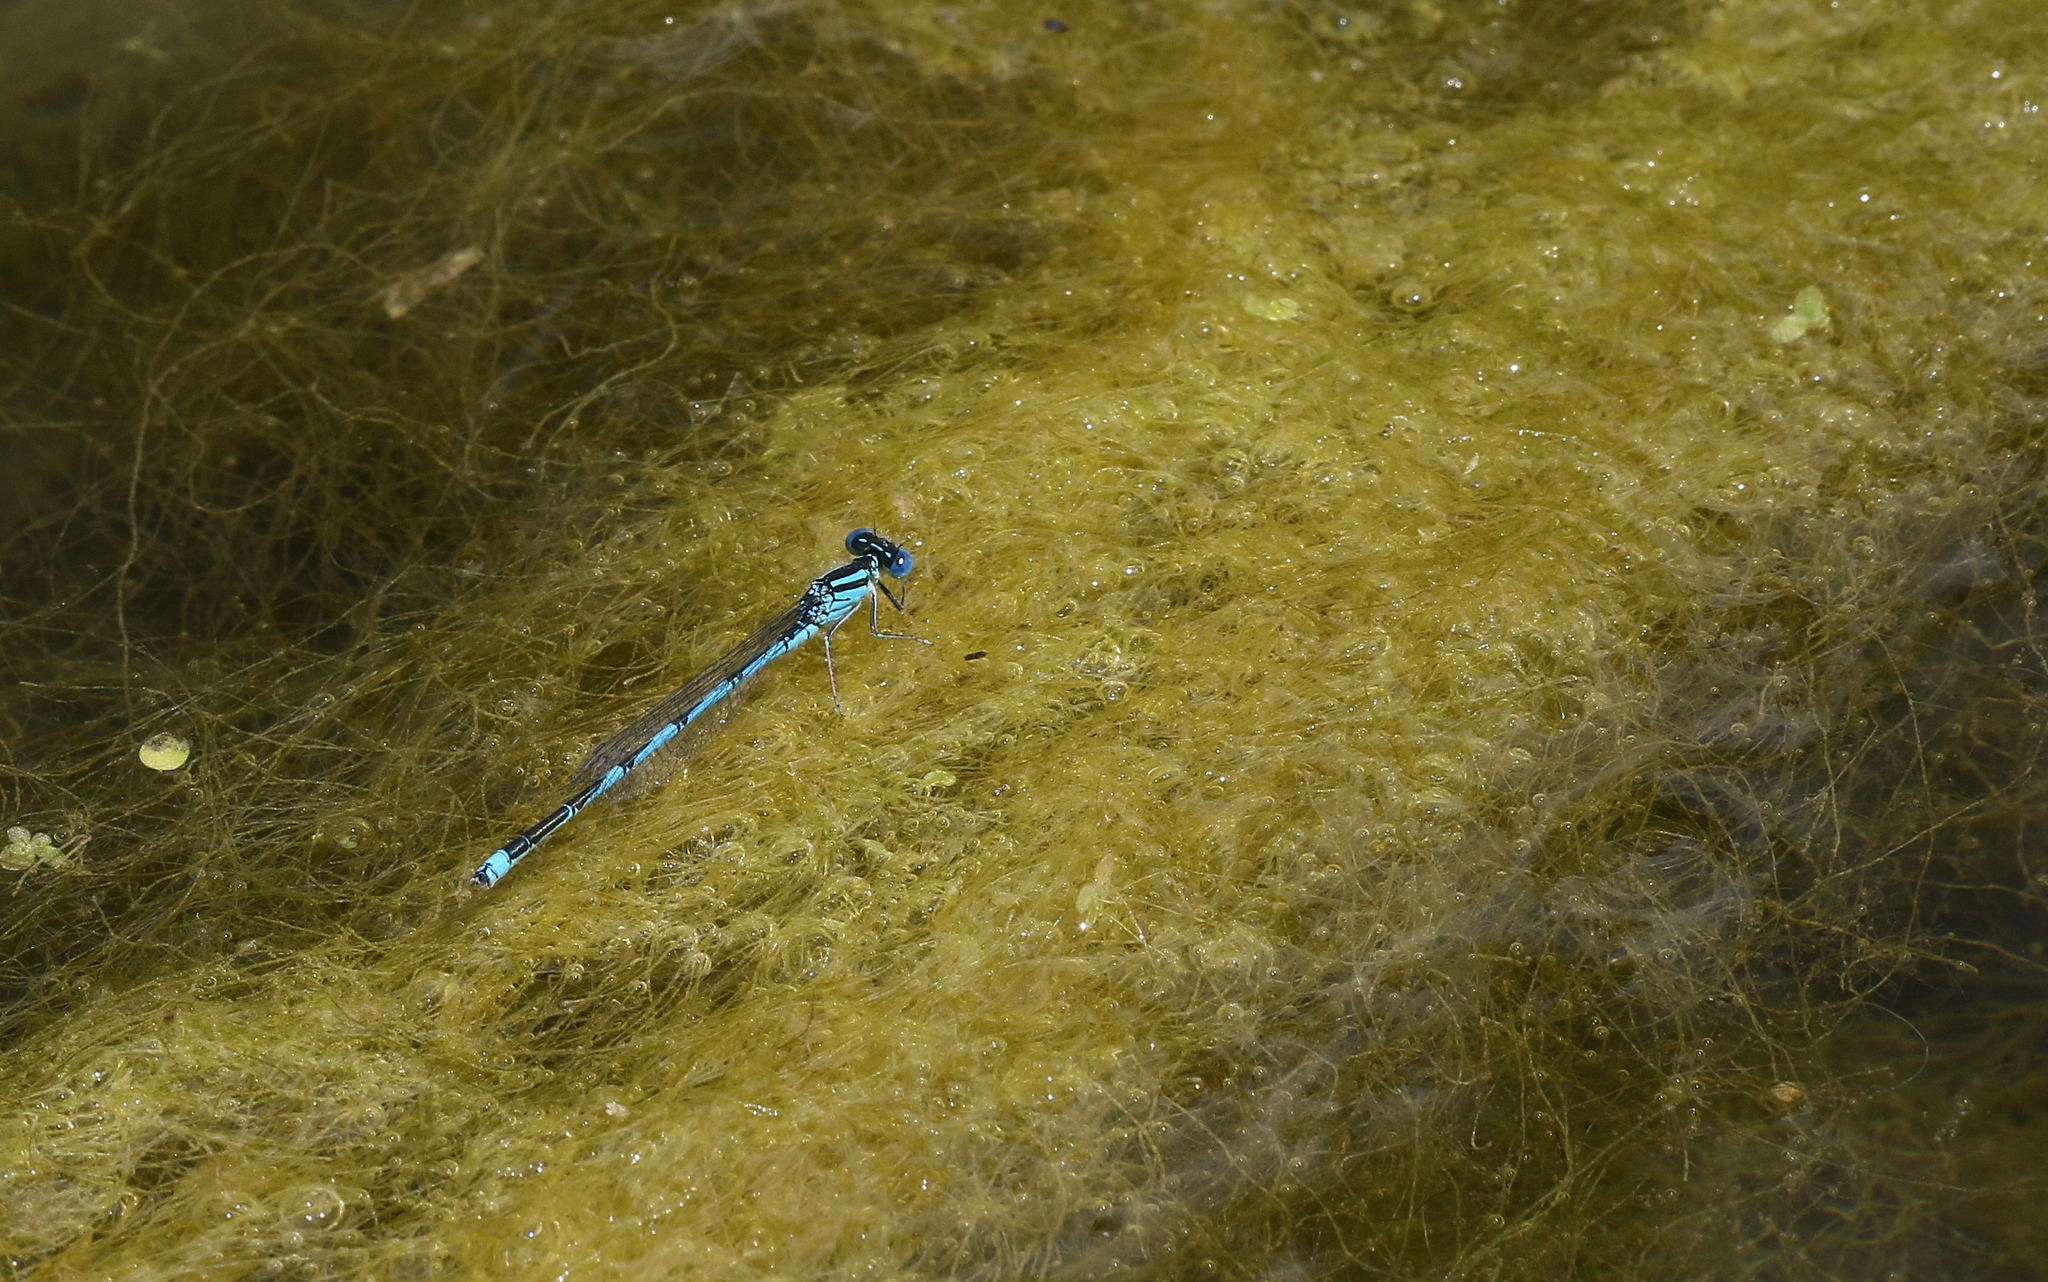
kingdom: Animalia
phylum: Arthropoda
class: Insecta
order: Odonata
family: Coenagrionidae
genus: Erythromma
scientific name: Erythromma lindenii
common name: Blue-eye
